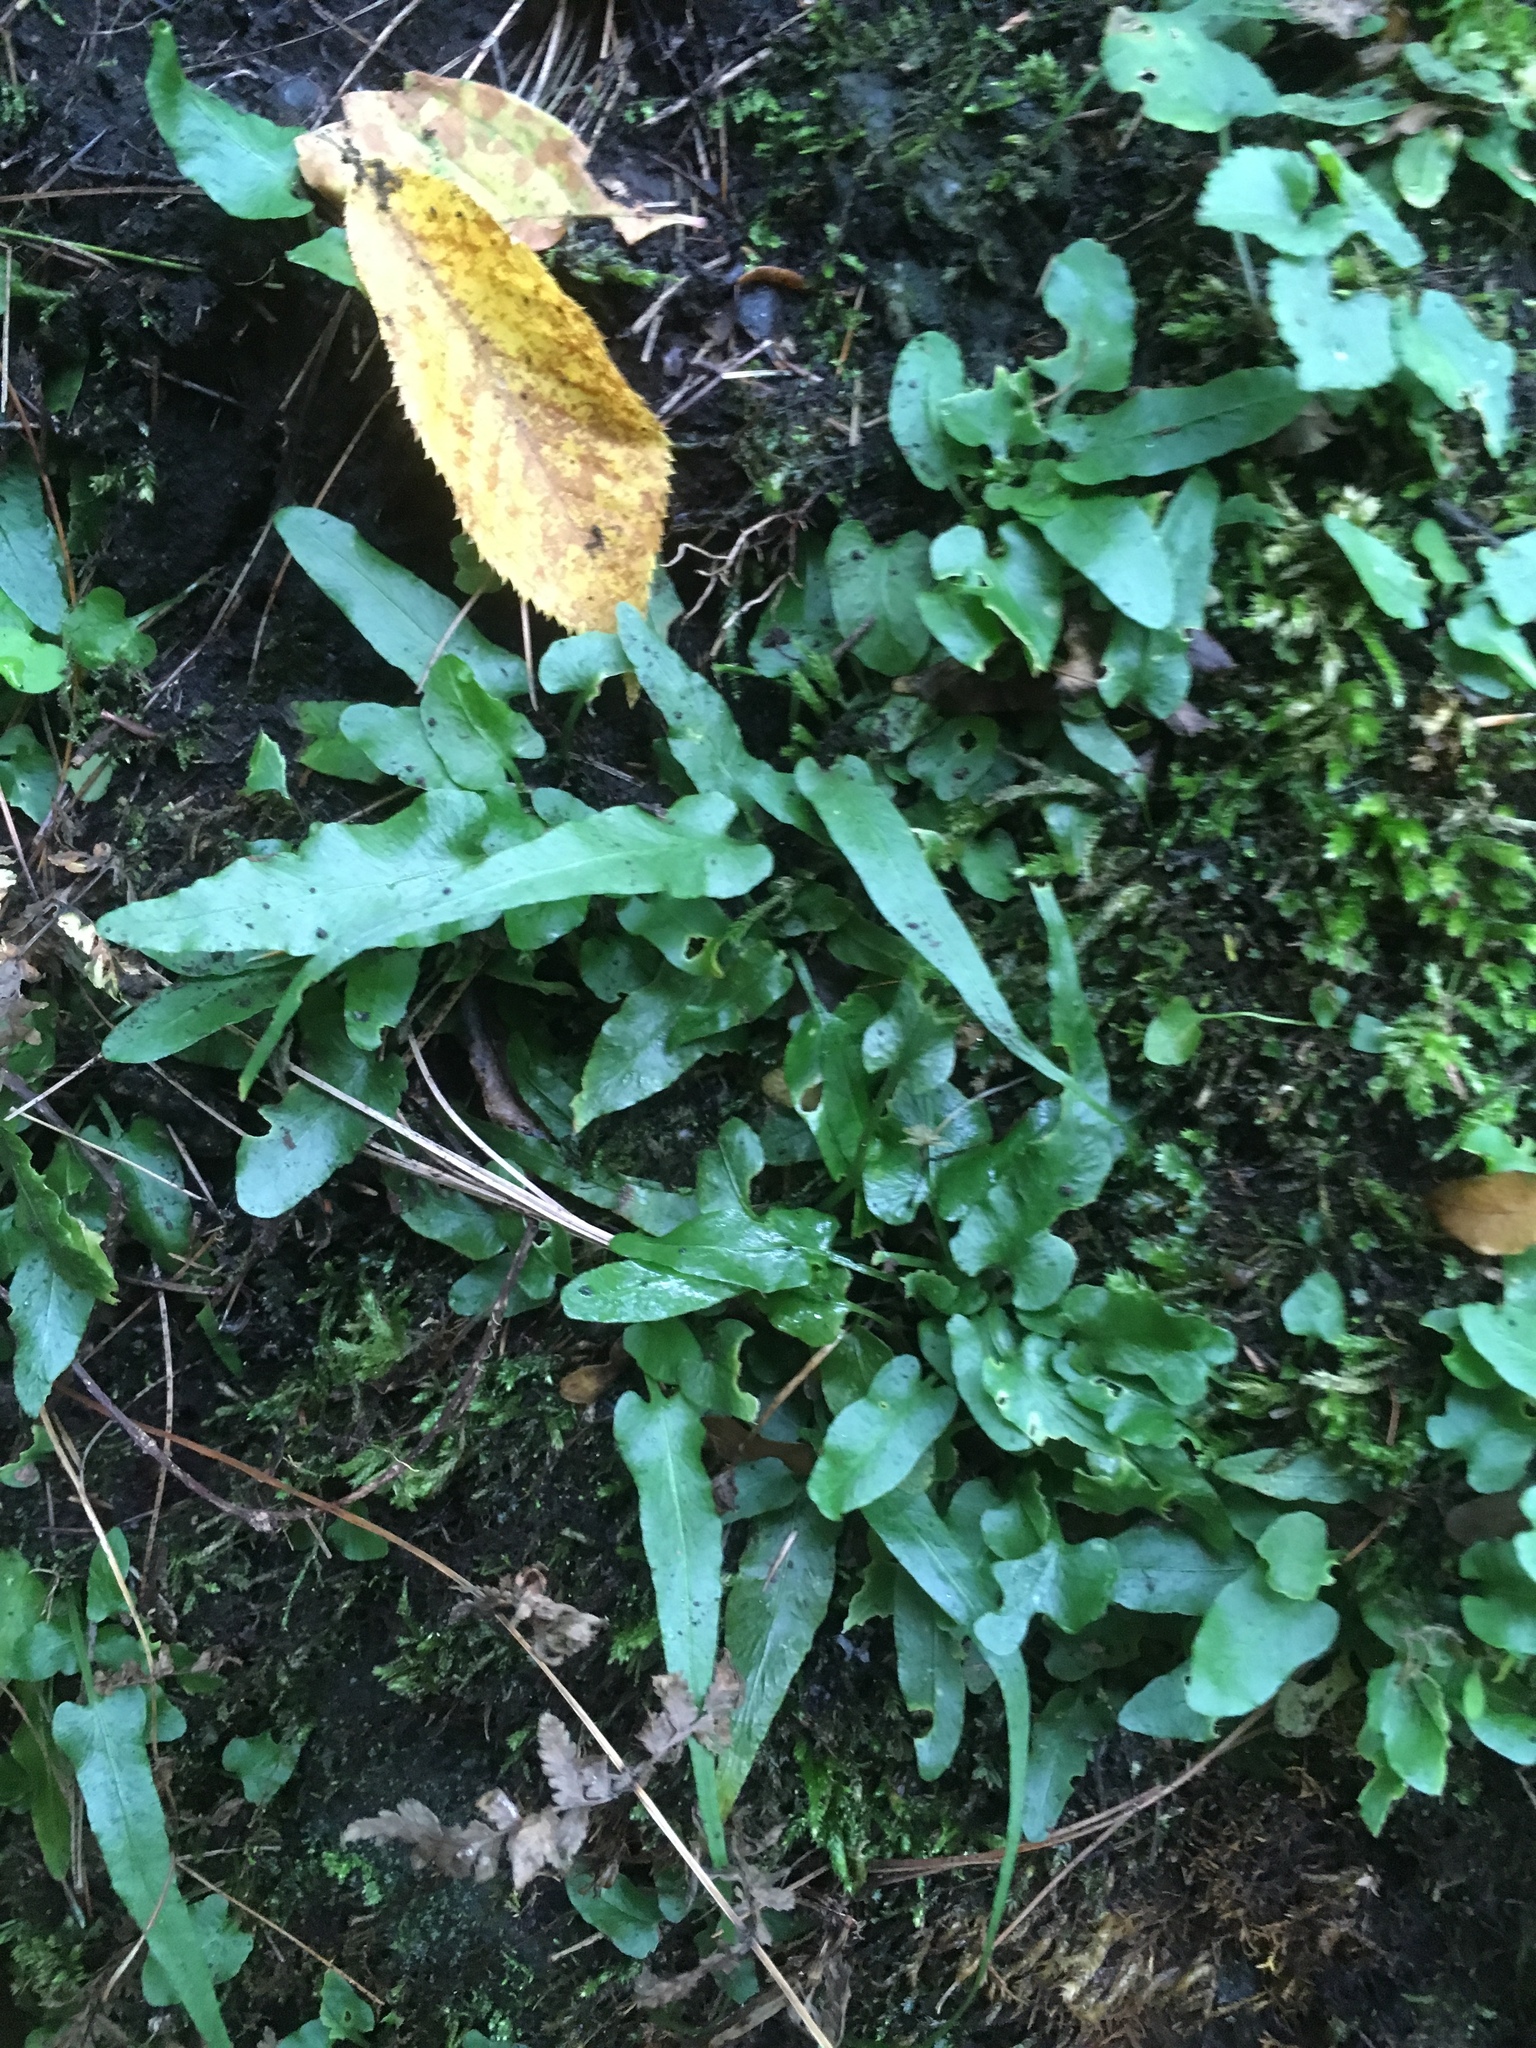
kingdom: Plantae
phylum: Tracheophyta
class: Polypodiopsida
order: Polypodiales
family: Aspleniaceae
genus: Asplenium
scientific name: Asplenium rhizophyllum
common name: Walking fern
